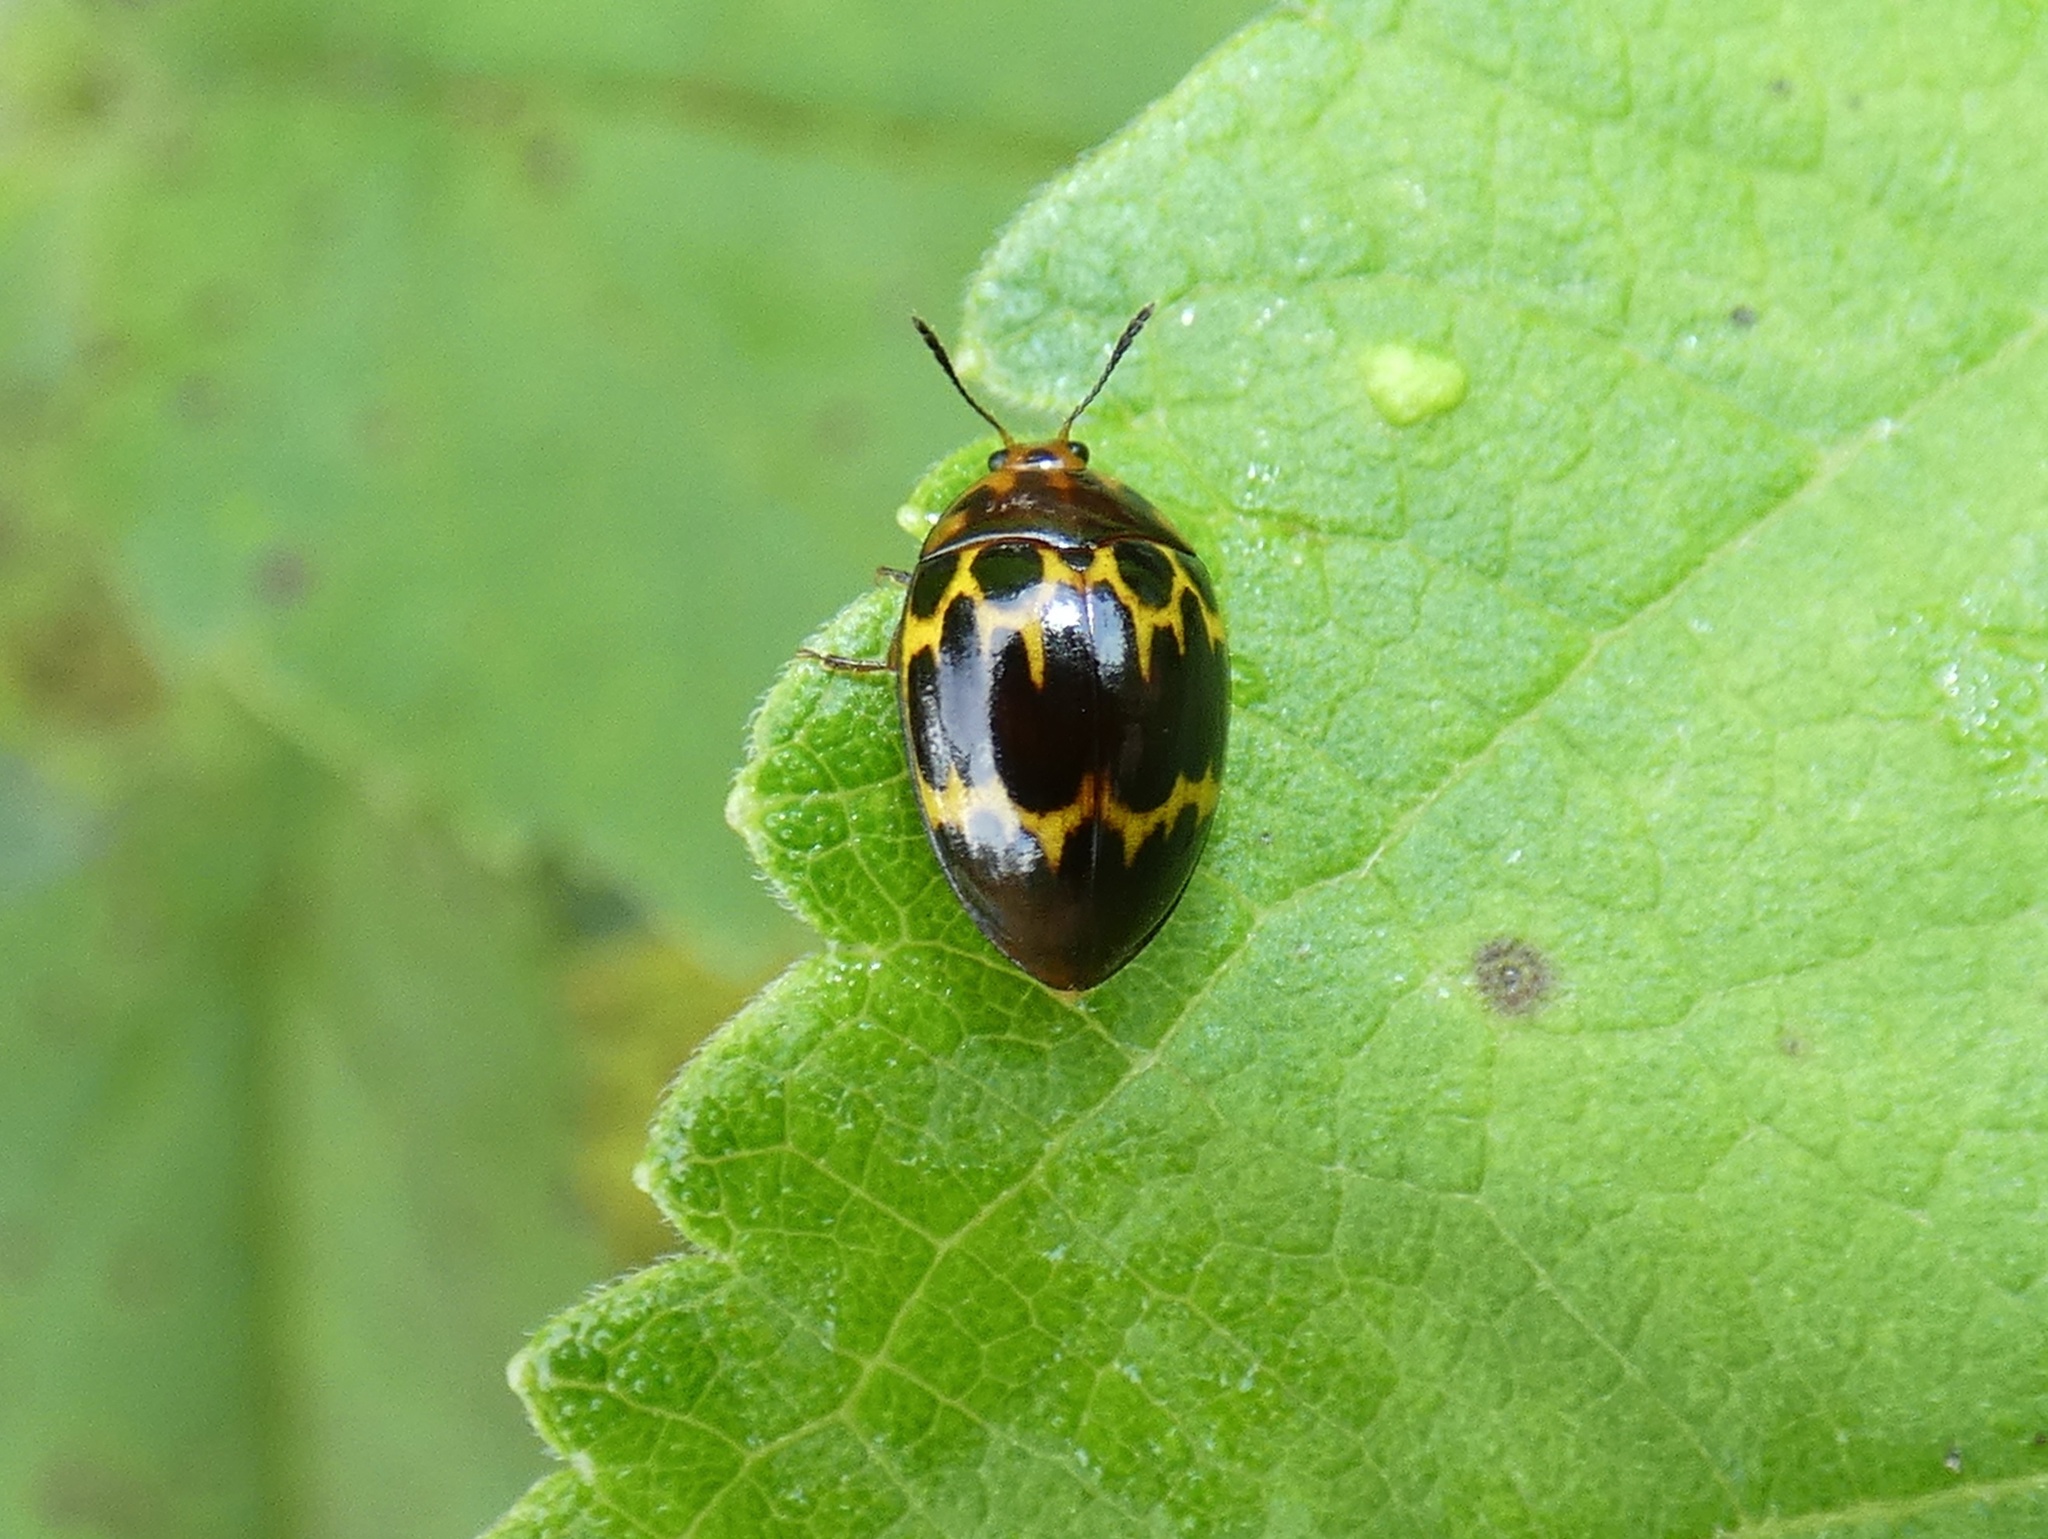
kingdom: Animalia
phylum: Arthropoda
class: Insecta
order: Coleoptera
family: Erotylidae
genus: Iphiclus
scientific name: Iphiclus delineatus
